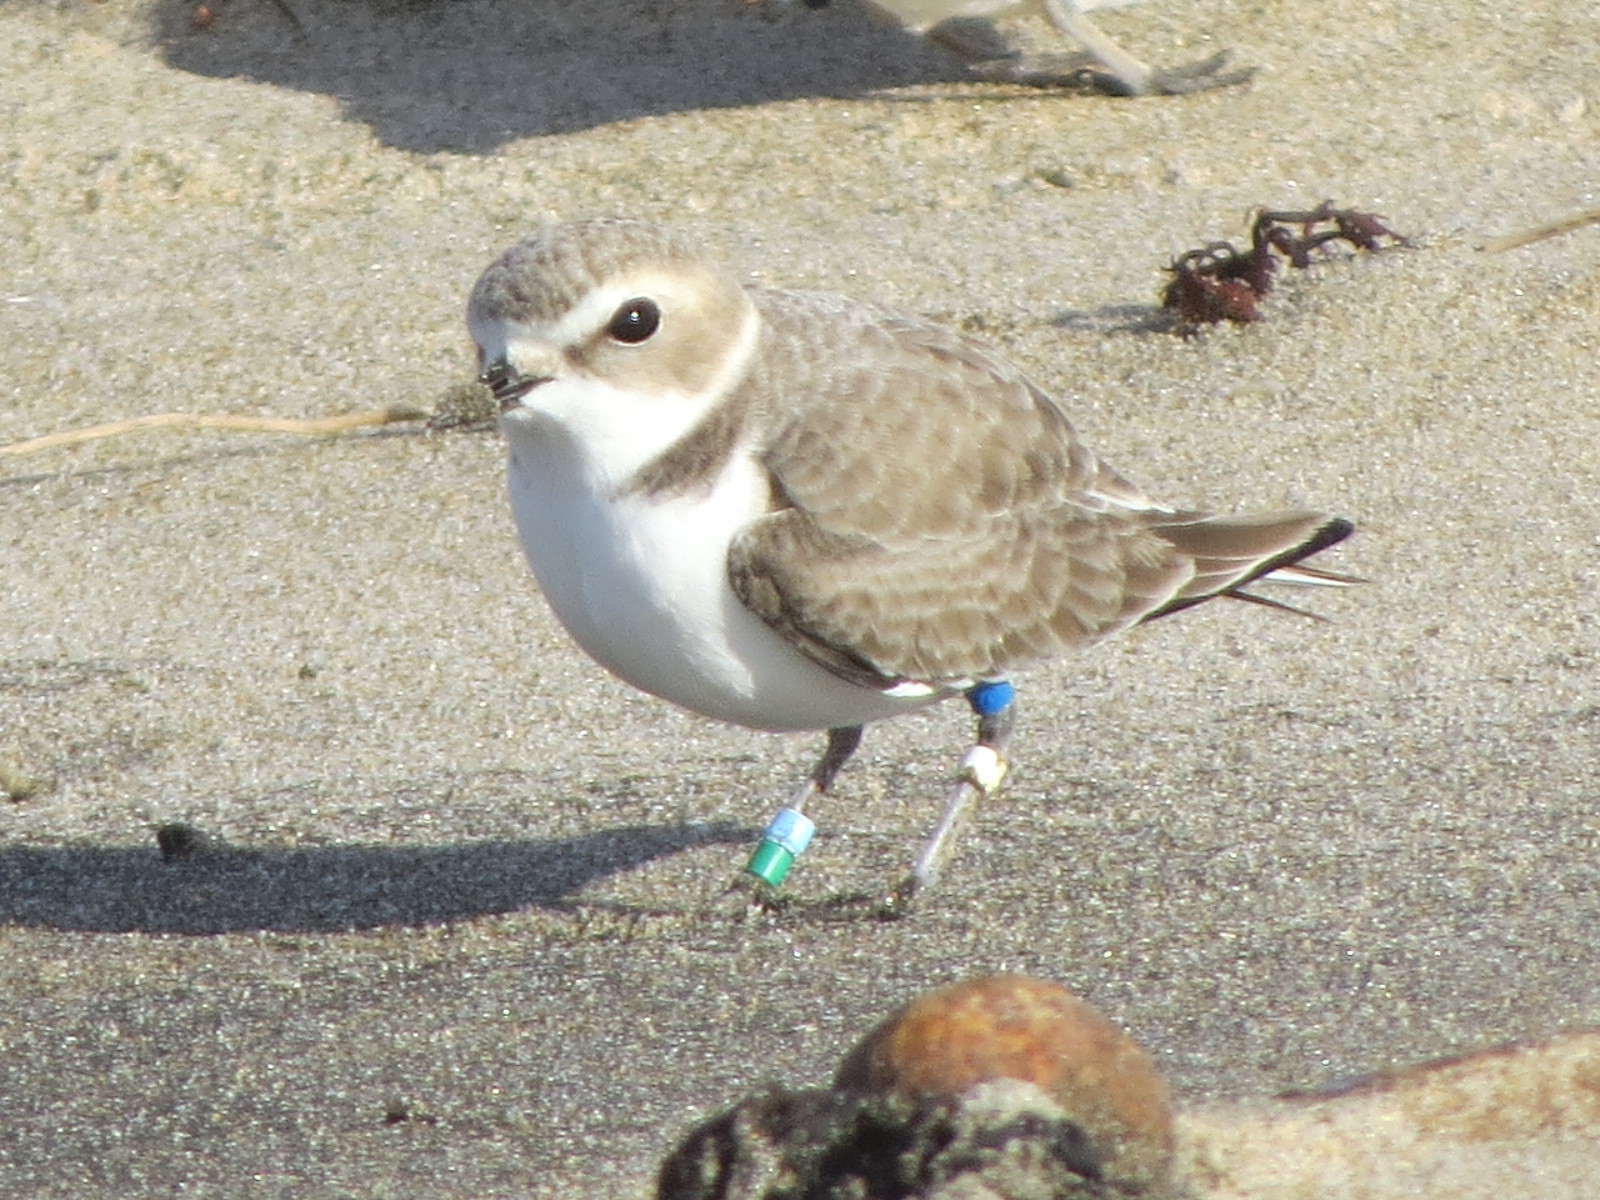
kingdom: Animalia
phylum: Chordata
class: Aves
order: Charadriiformes
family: Charadriidae
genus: Anarhynchus
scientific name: Anarhynchus
